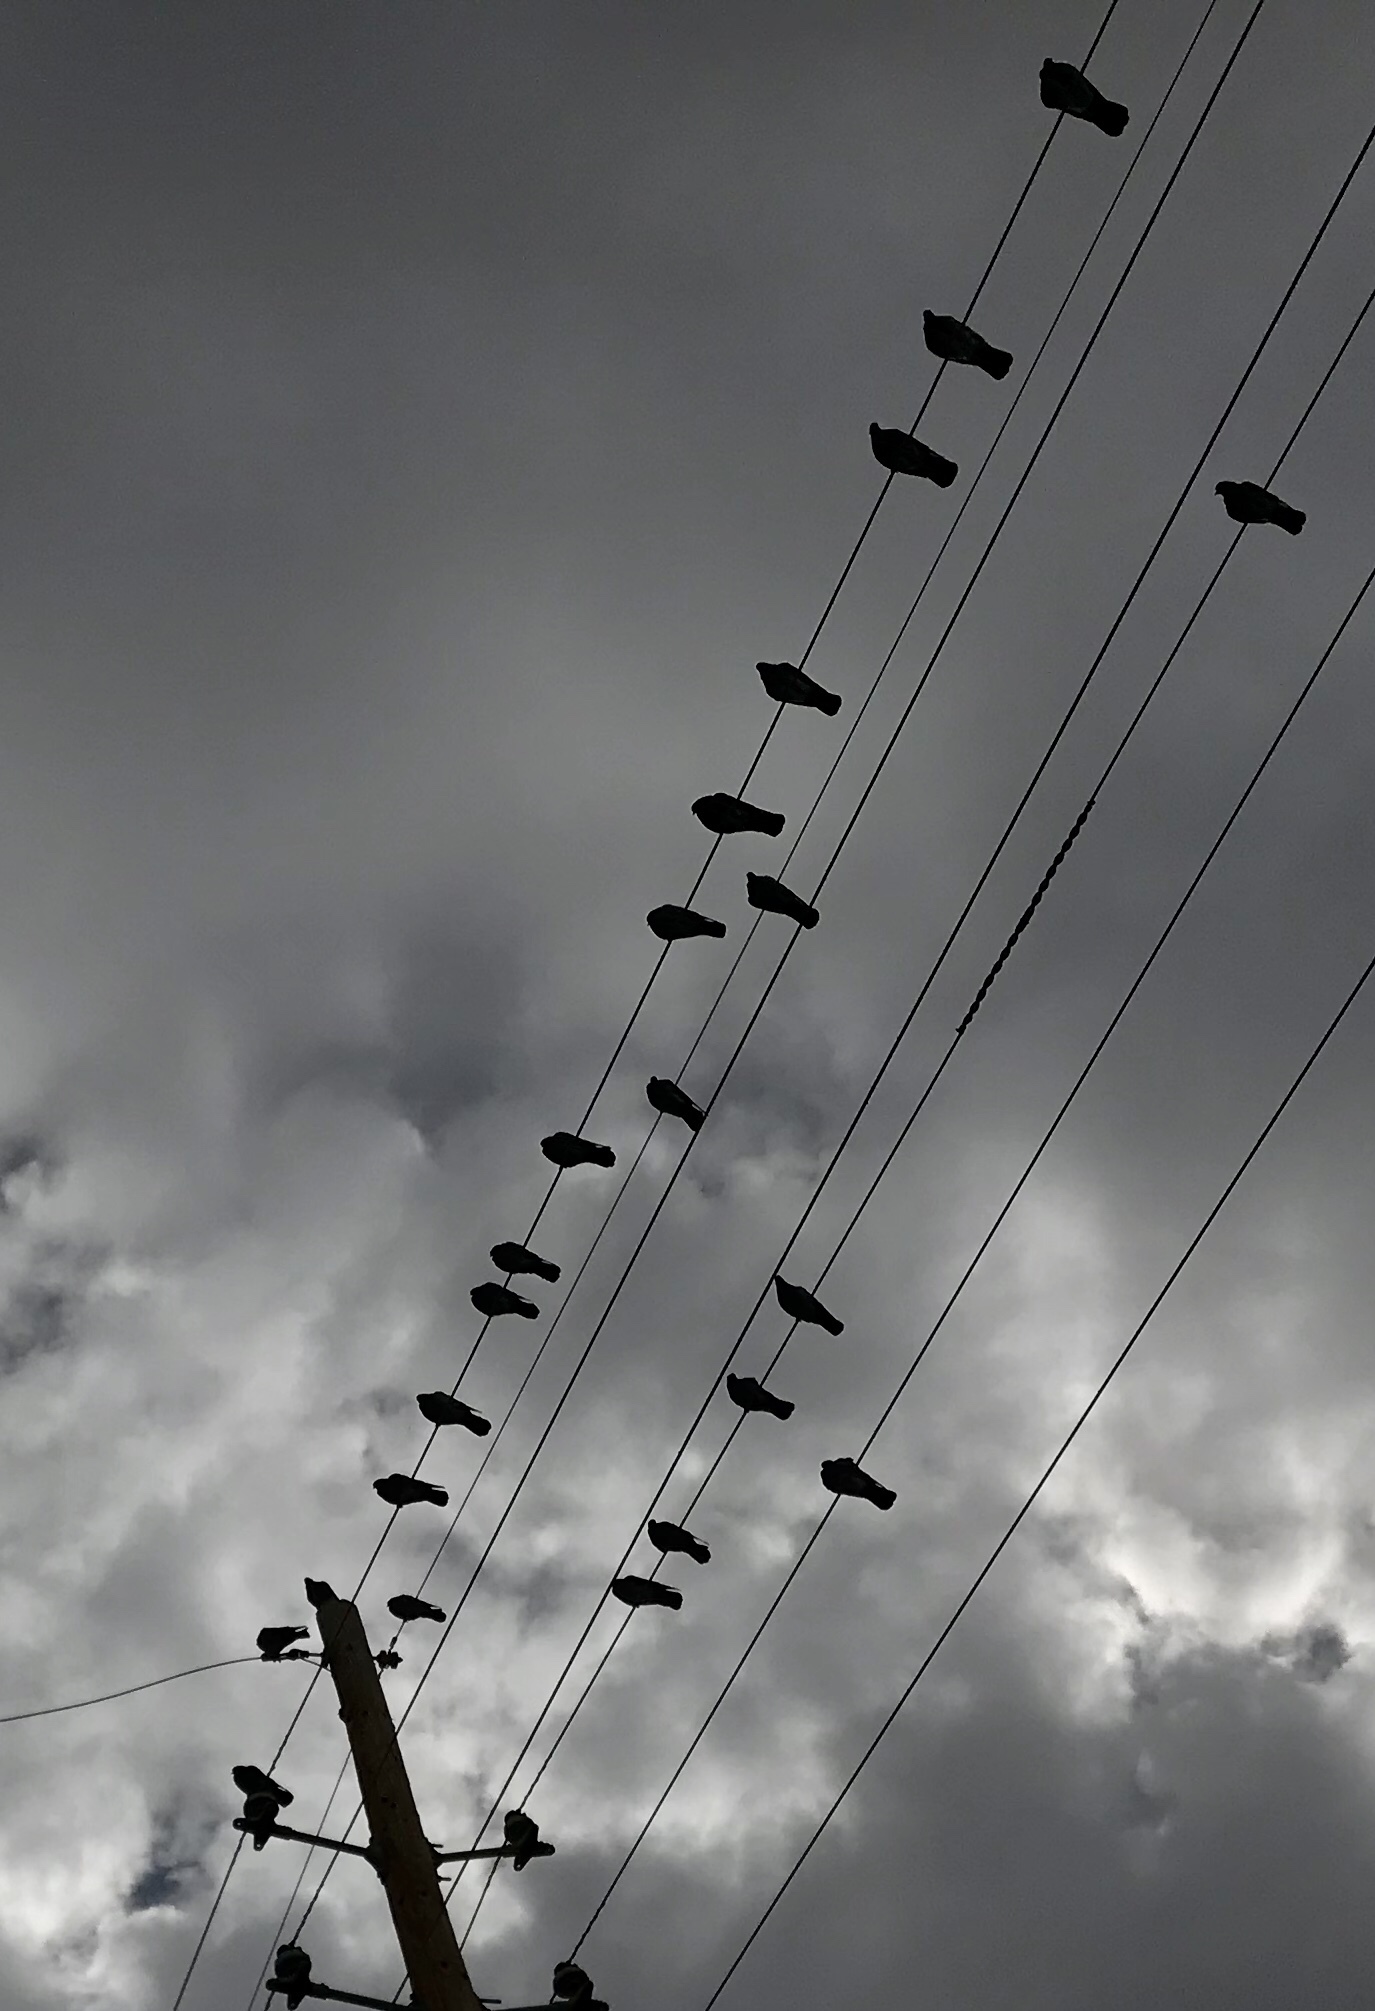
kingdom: Animalia
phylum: Chordata
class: Aves
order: Columbiformes
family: Columbidae
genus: Columba
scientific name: Columba livia
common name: Rock pigeon
